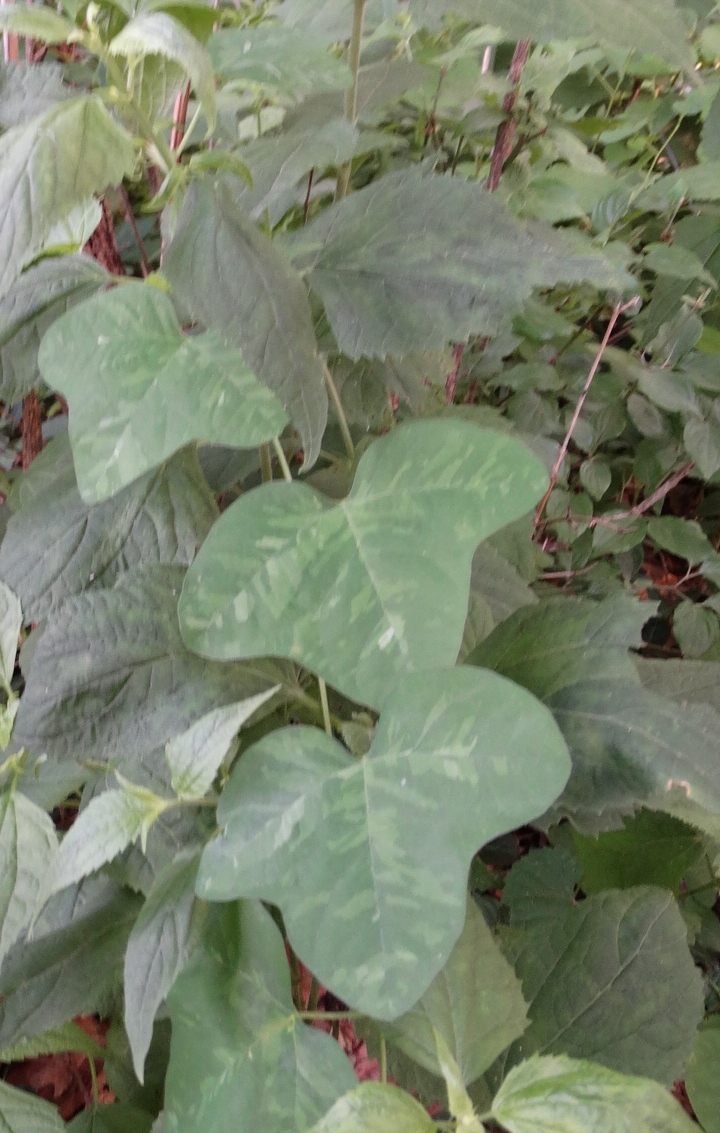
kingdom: Plantae
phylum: Tracheophyta
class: Magnoliopsida
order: Malpighiales
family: Passifloraceae
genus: Passiflora
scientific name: Passiflora lutea
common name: Yellow passionflower
